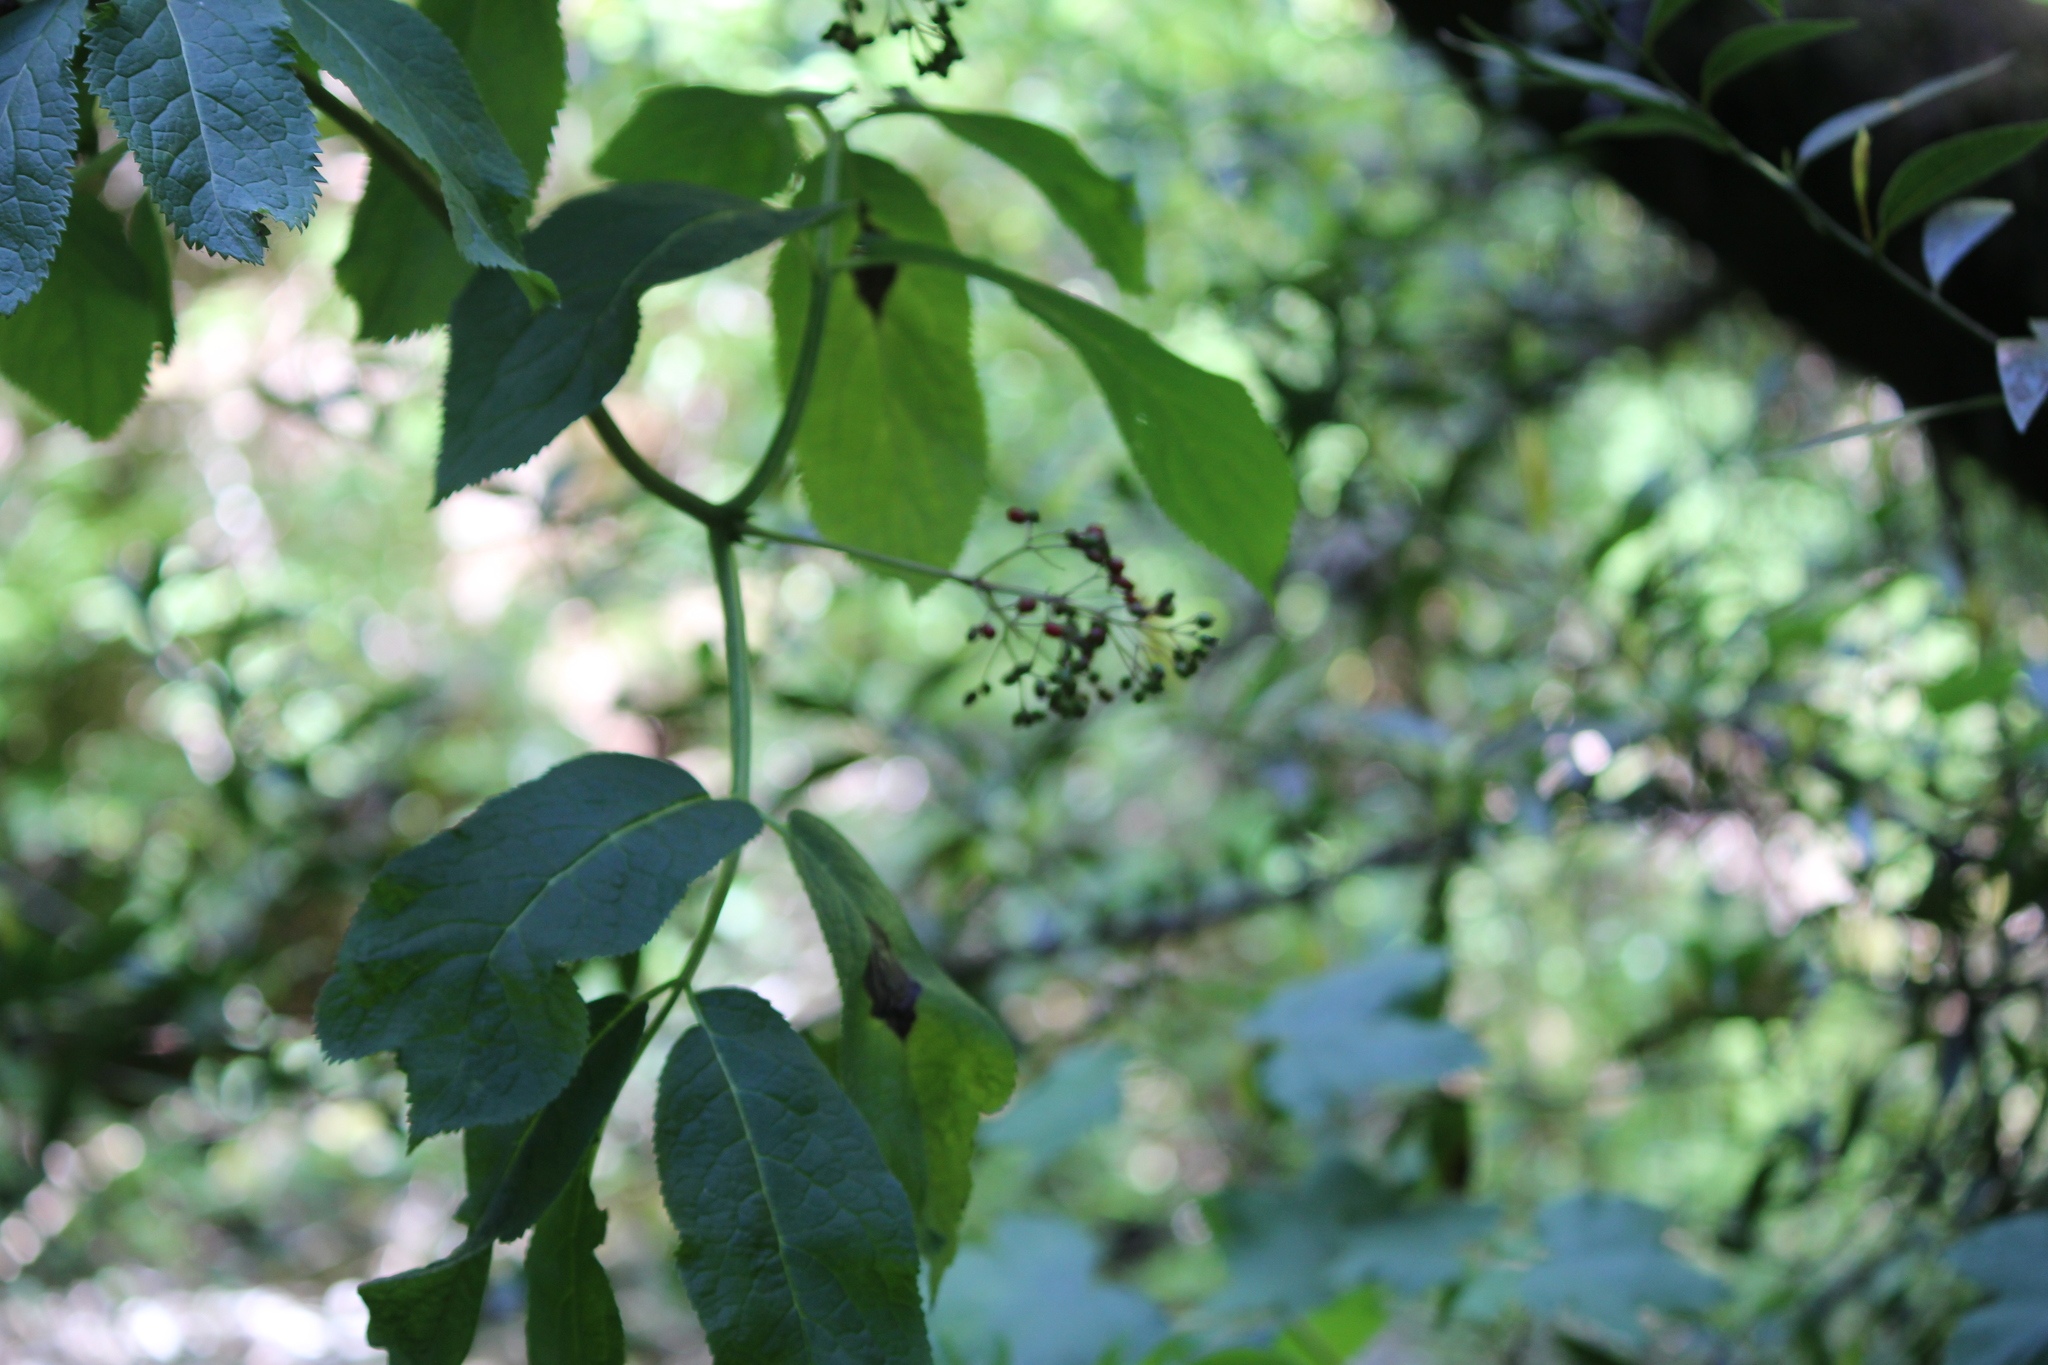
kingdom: Plantae
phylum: Tracheophyta
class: Magnoliopsida
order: Dipsacales
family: Viburnaceae
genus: Sambucus
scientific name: Sambucus racemosa
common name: Red-berried elder
